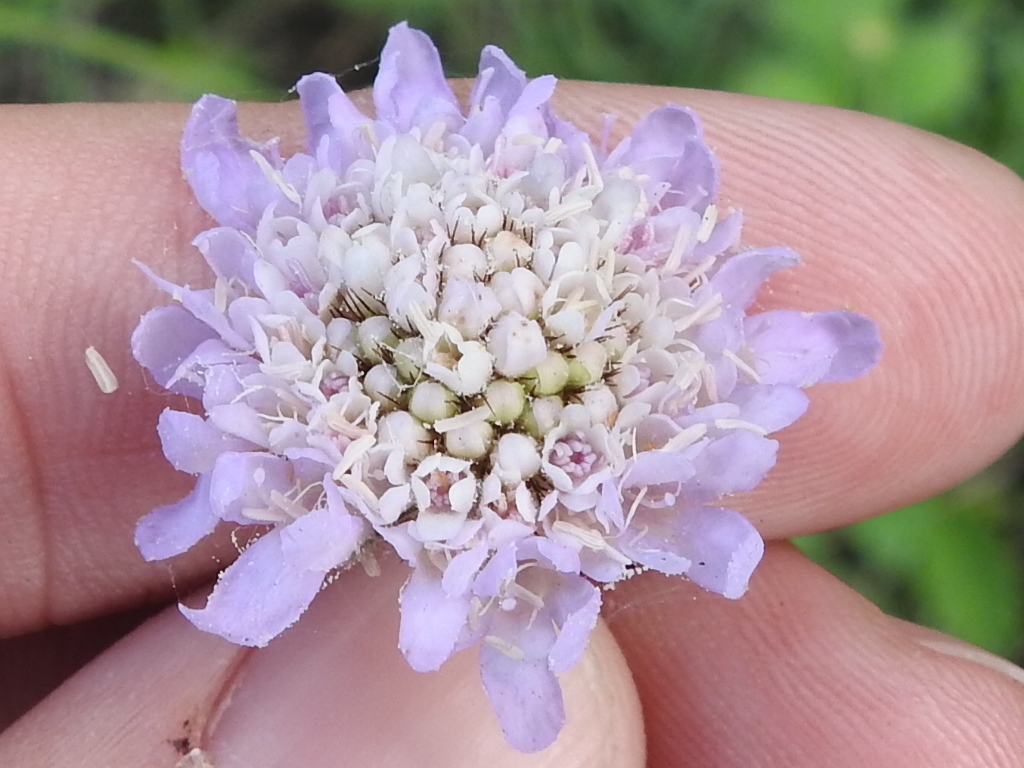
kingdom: Plantae
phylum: Tracheophyta
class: Magnoliopsida
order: Dipsacales
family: Caprifoliaceae
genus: Sixalix
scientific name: Sixalix atropurpurea
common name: Sweet scabious
